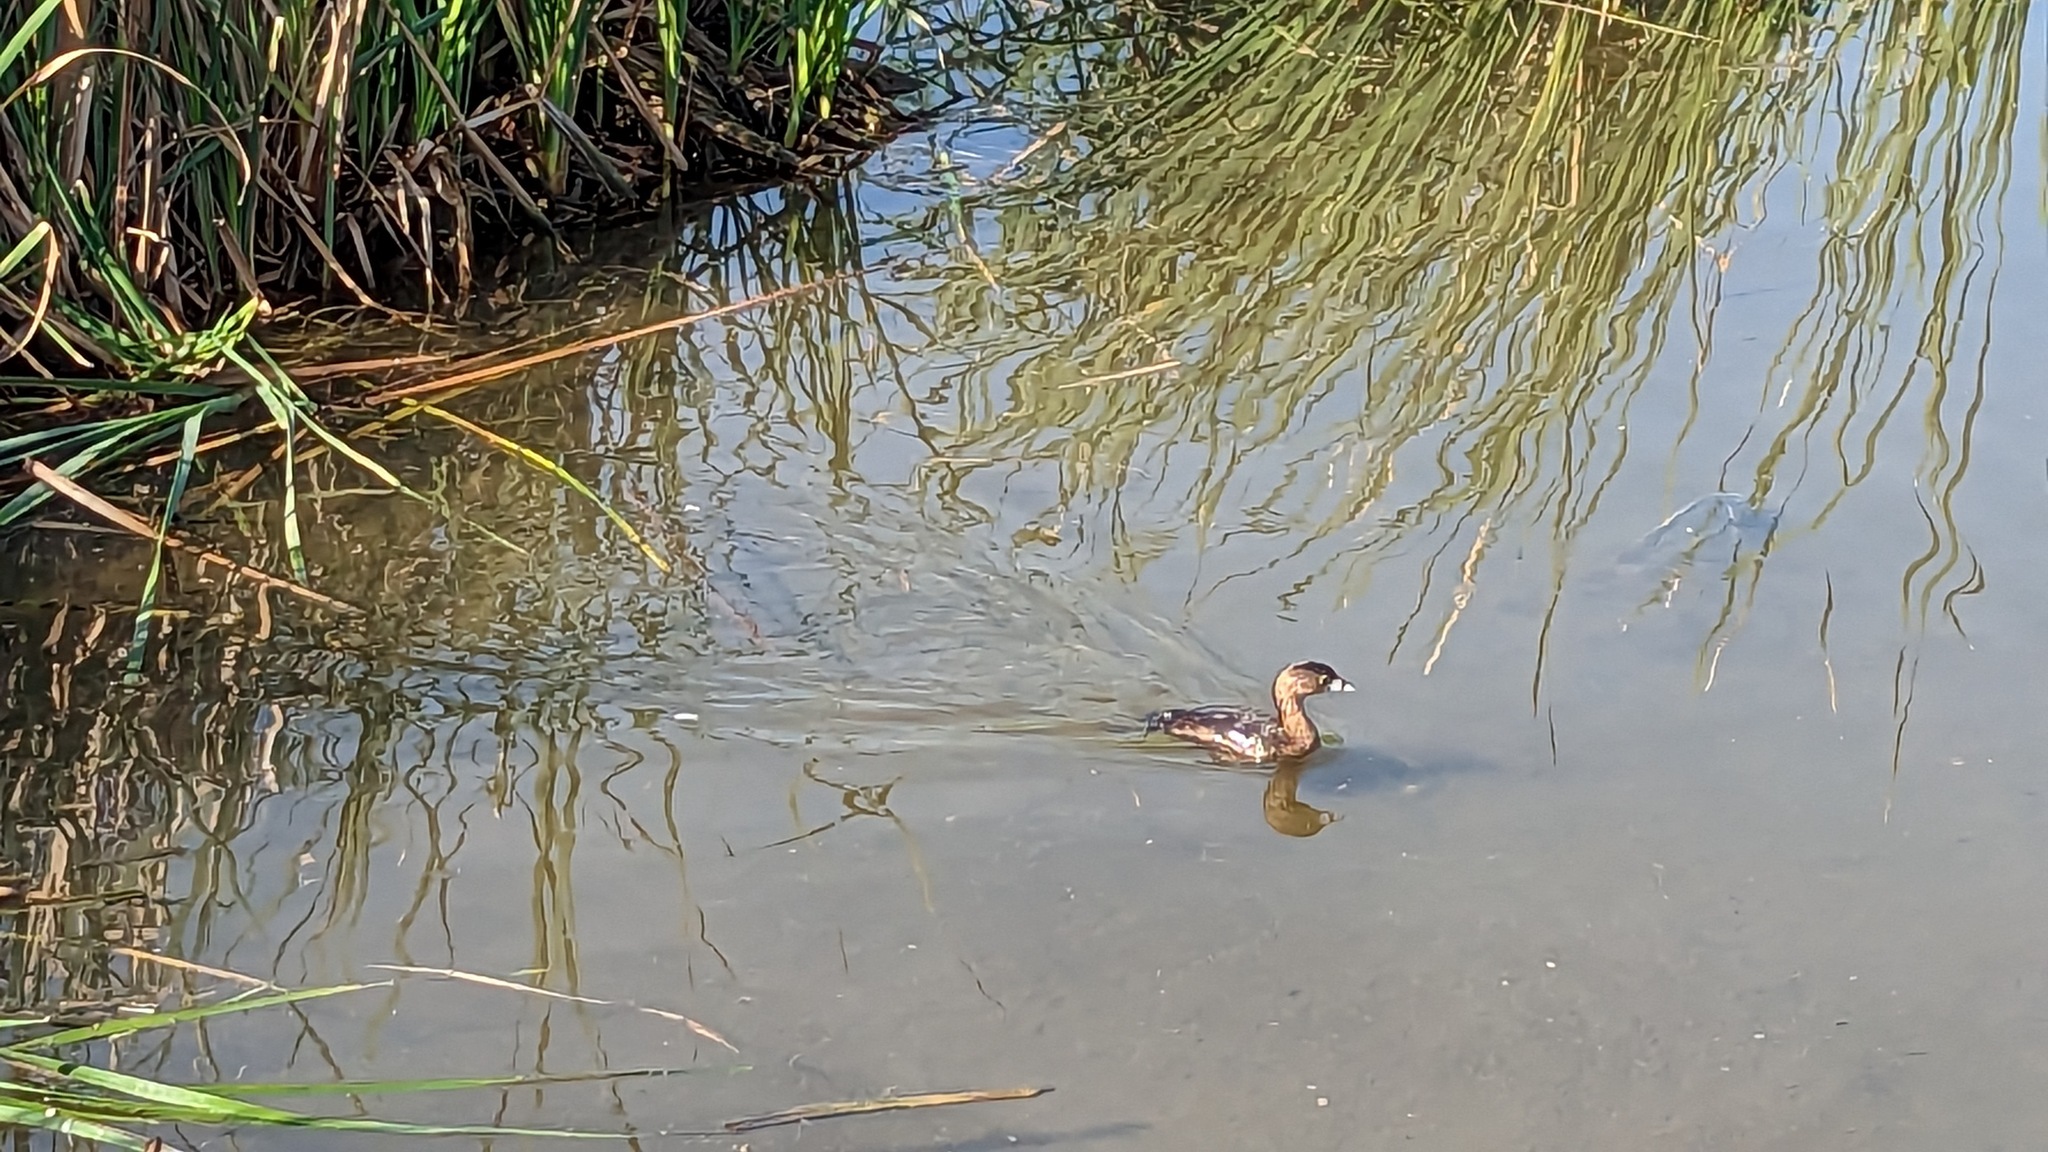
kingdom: Animalia
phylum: Chordata
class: Aves
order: Podicipediformes
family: Podicipedidae
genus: Podilymbus
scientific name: Podilymbus podiceps
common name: Pied-billed grebe
